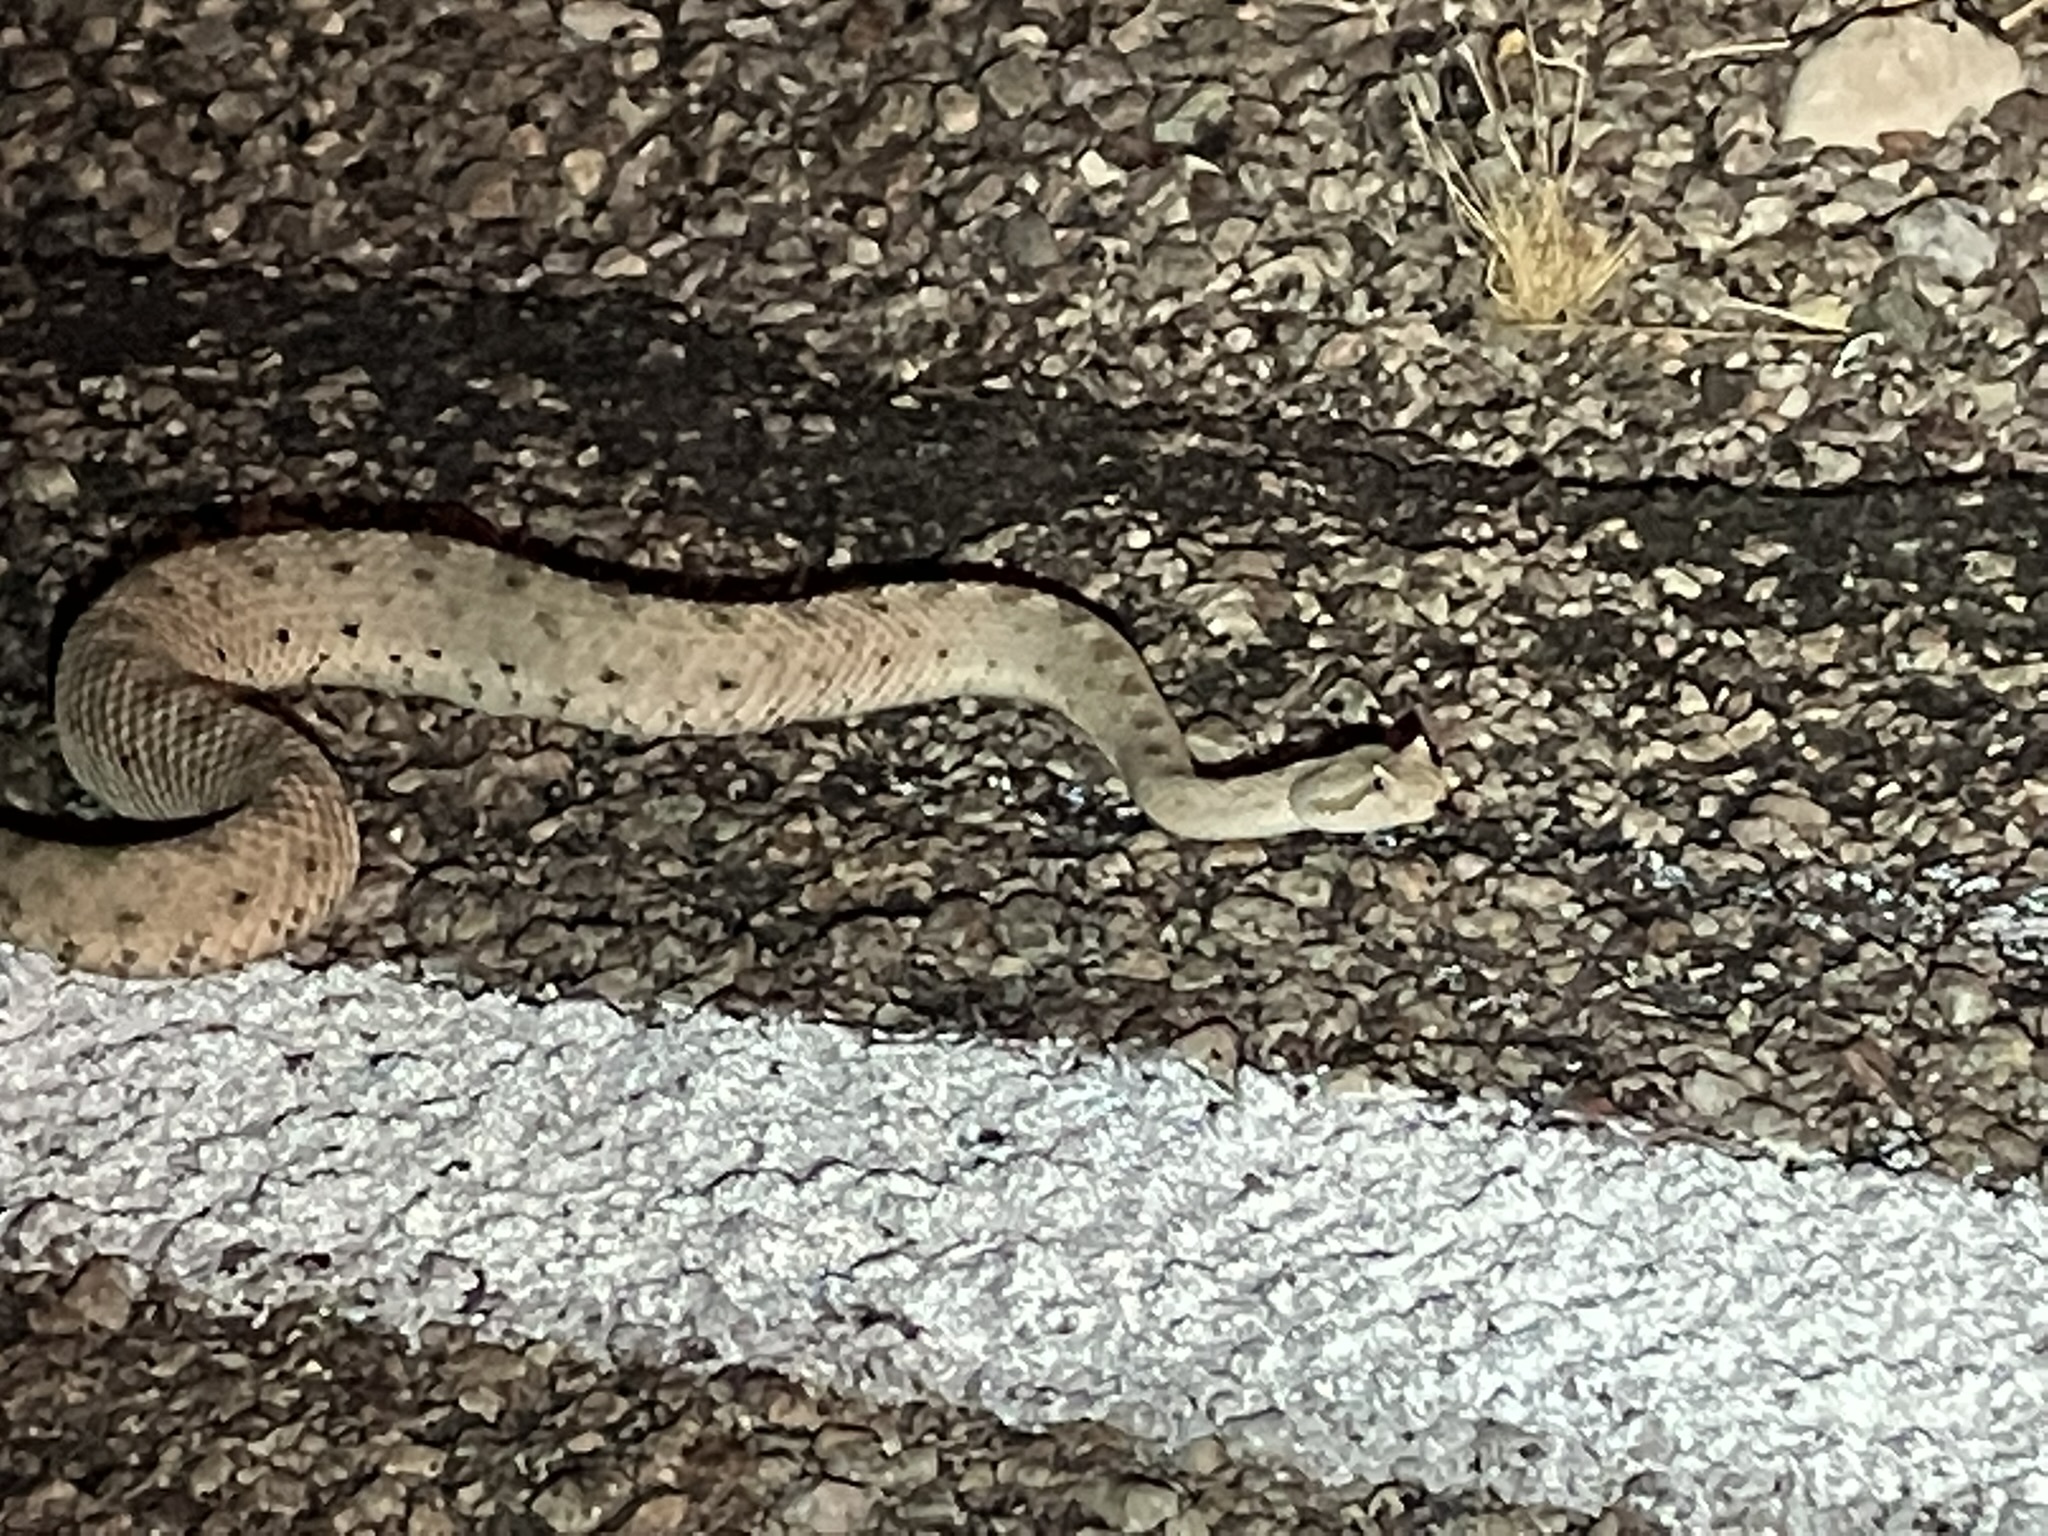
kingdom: Animalia
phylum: Chordata
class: Squamata
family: Viperidae
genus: Crotalus
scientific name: Crotalus cerastes
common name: Sidewinder
